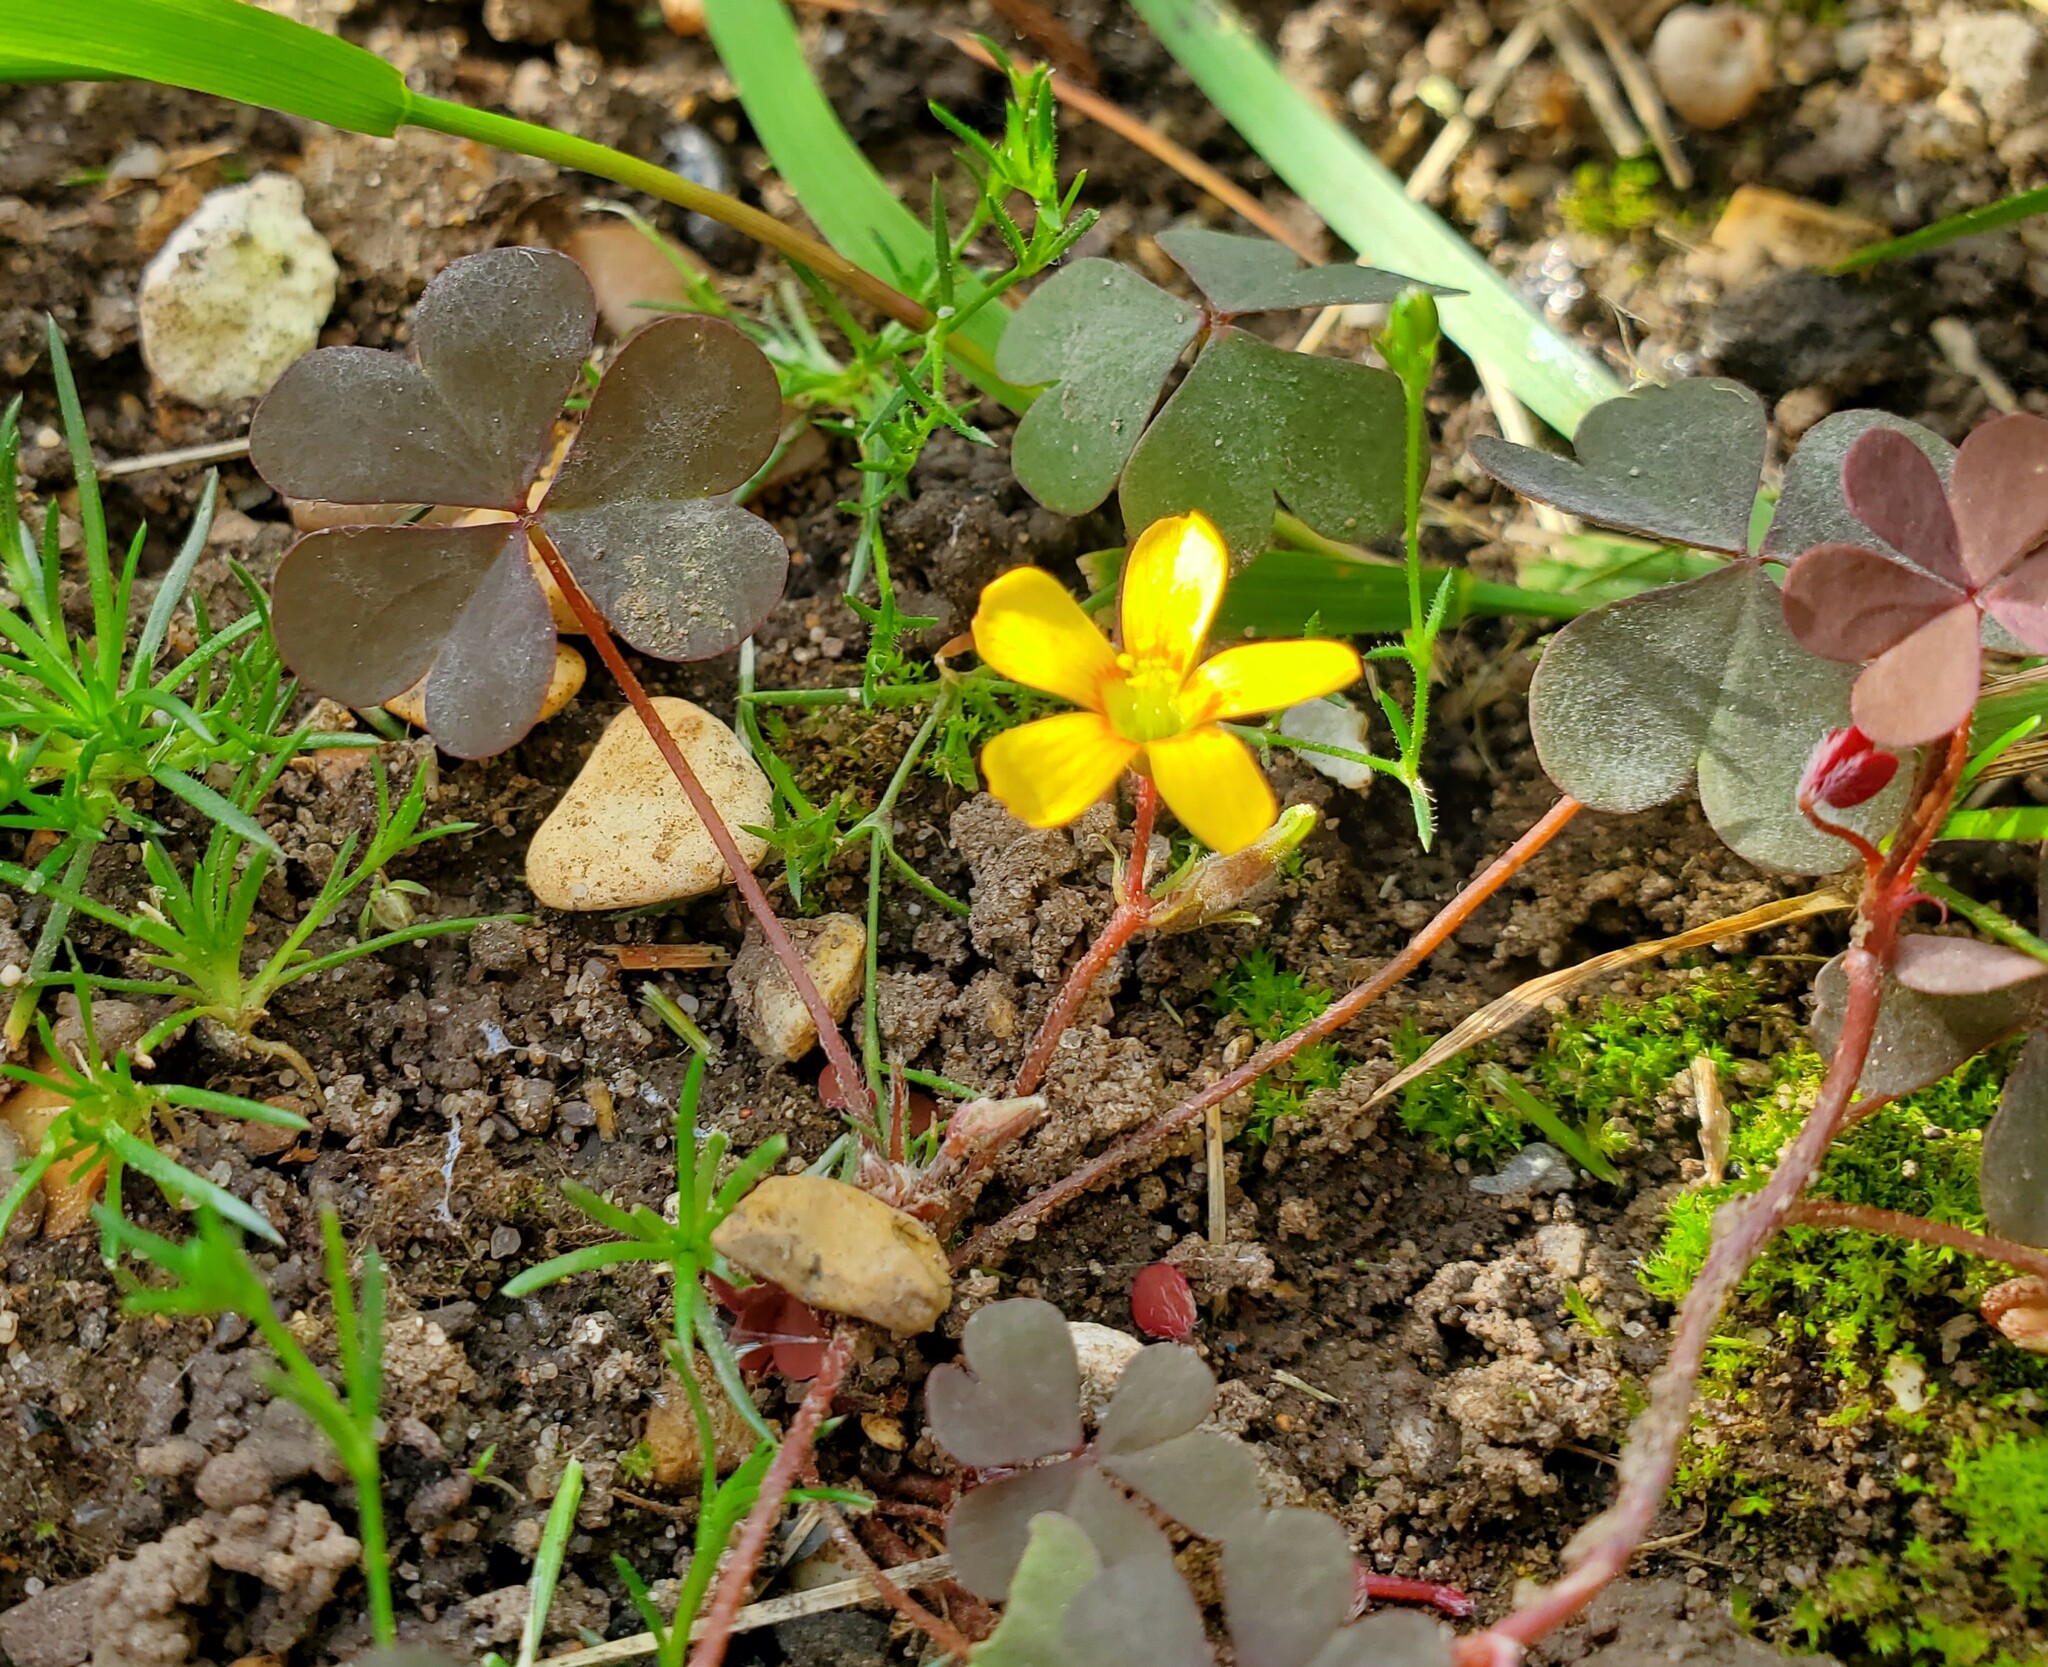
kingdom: Plantae
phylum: Tracheophyta
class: Magnoliopsida
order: Oxalidales
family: Oxalidaceae
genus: Oxalis
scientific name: Oxalis corniculata
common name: Procumbent yellow-sorrel
